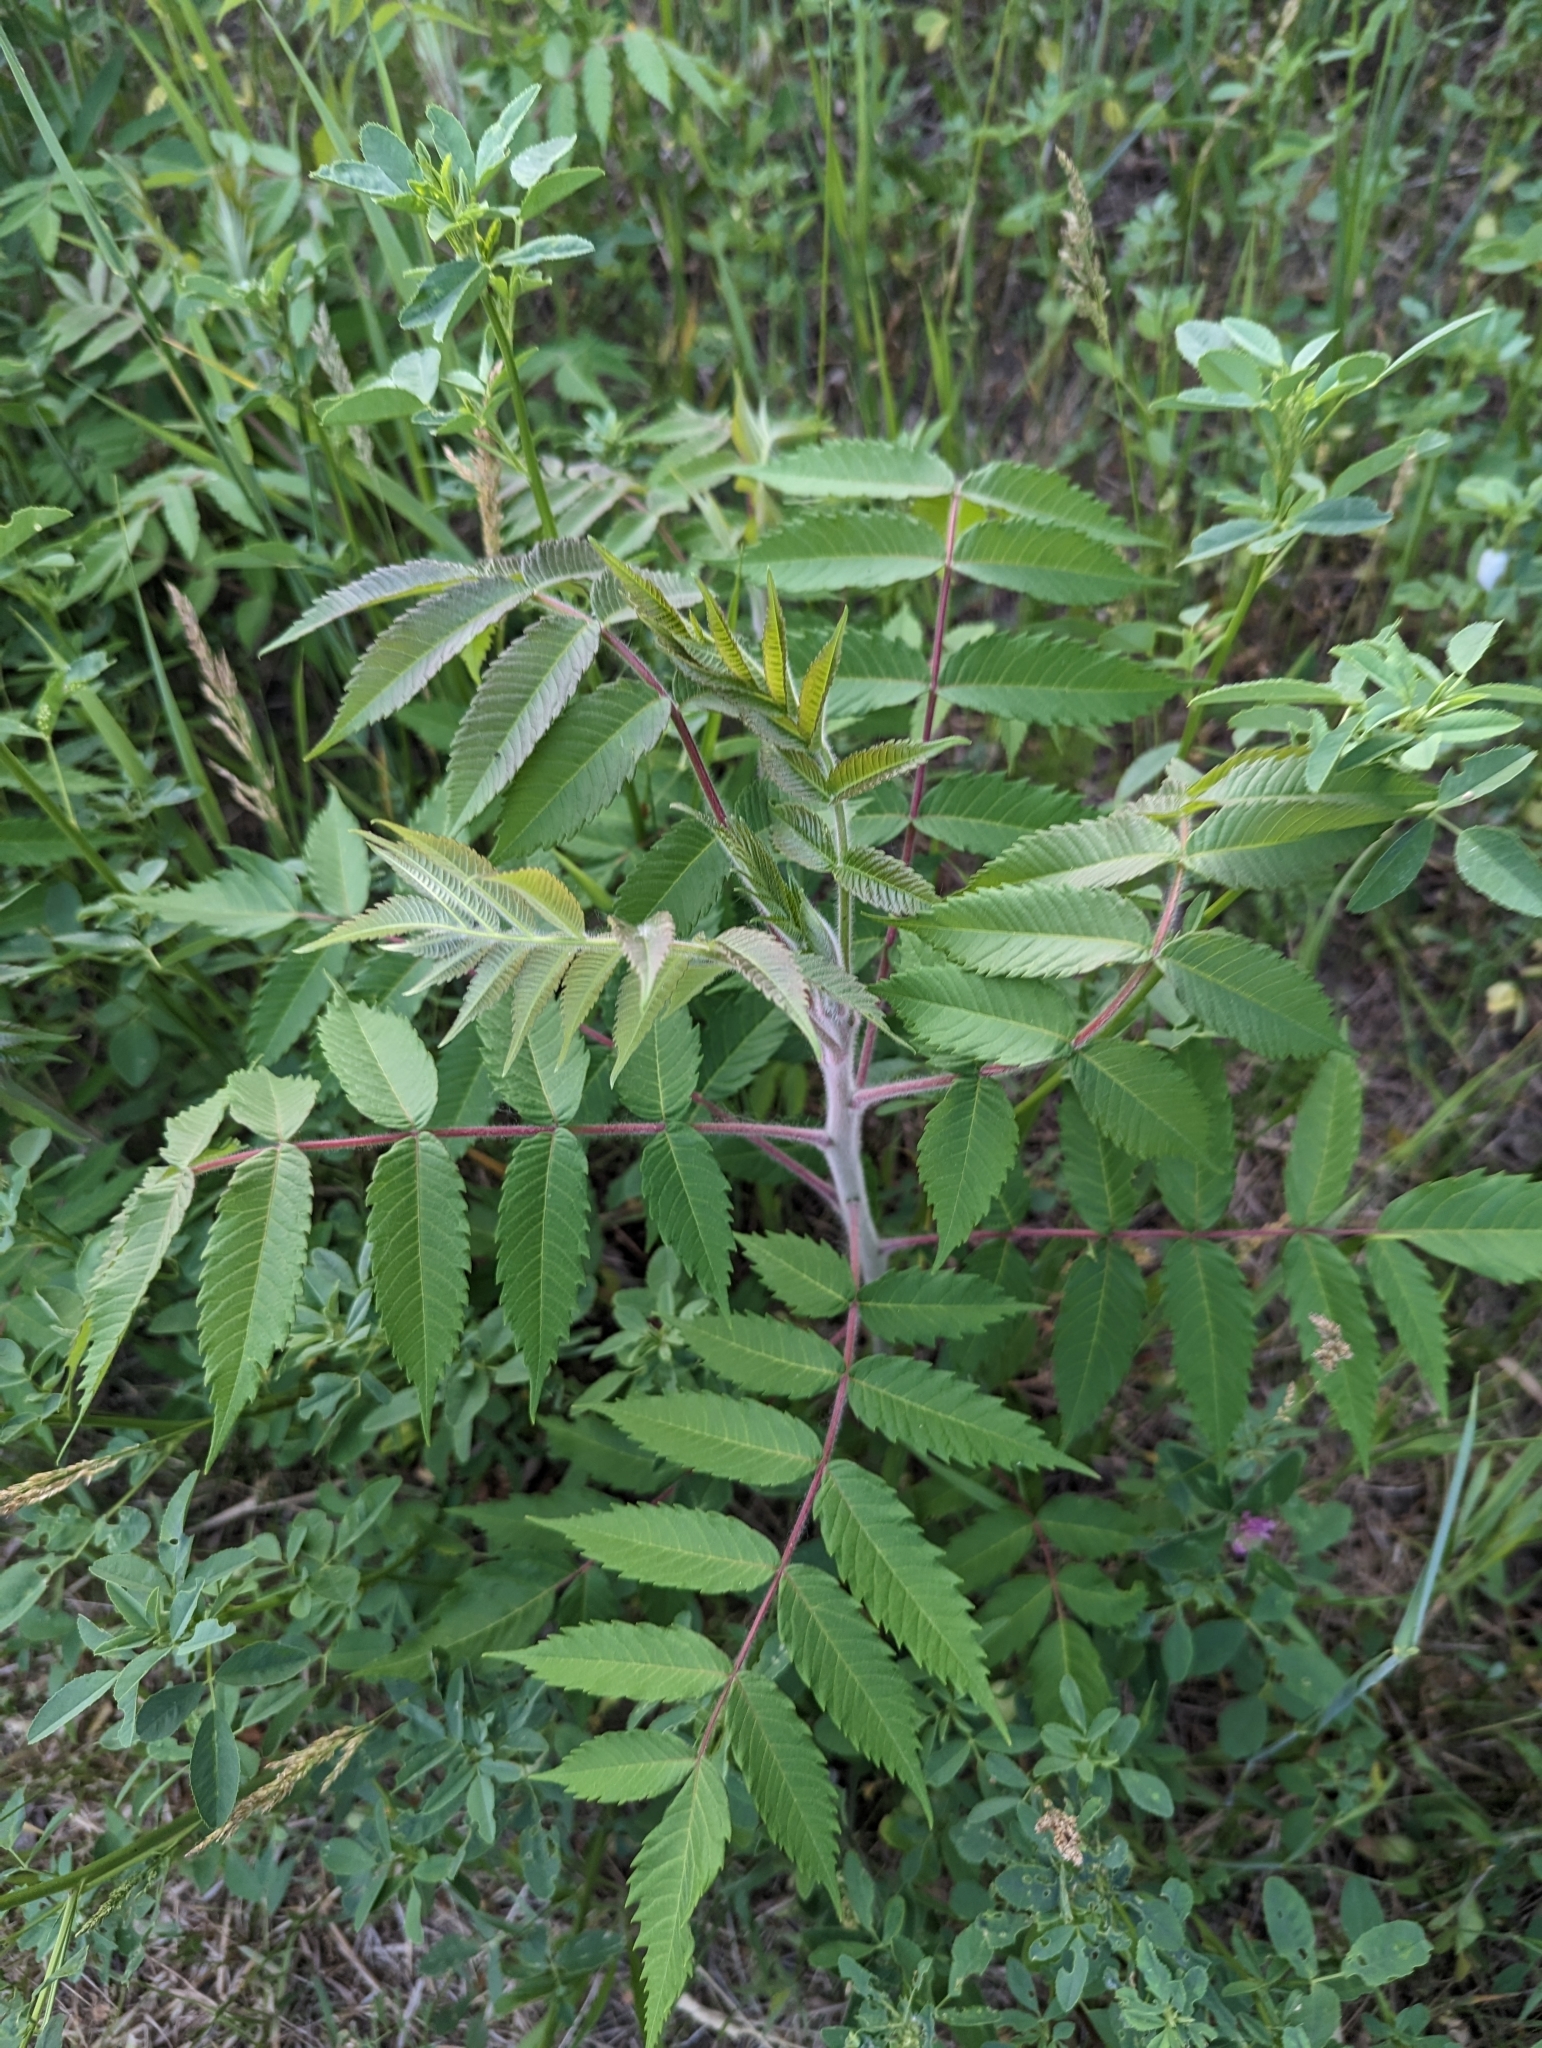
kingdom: Plantae
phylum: Tracheophyta
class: Magnoliopsida
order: Sapindales
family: Anacardiaceae
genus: Rhus
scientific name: Rhus typhina
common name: Staghorn sumac
